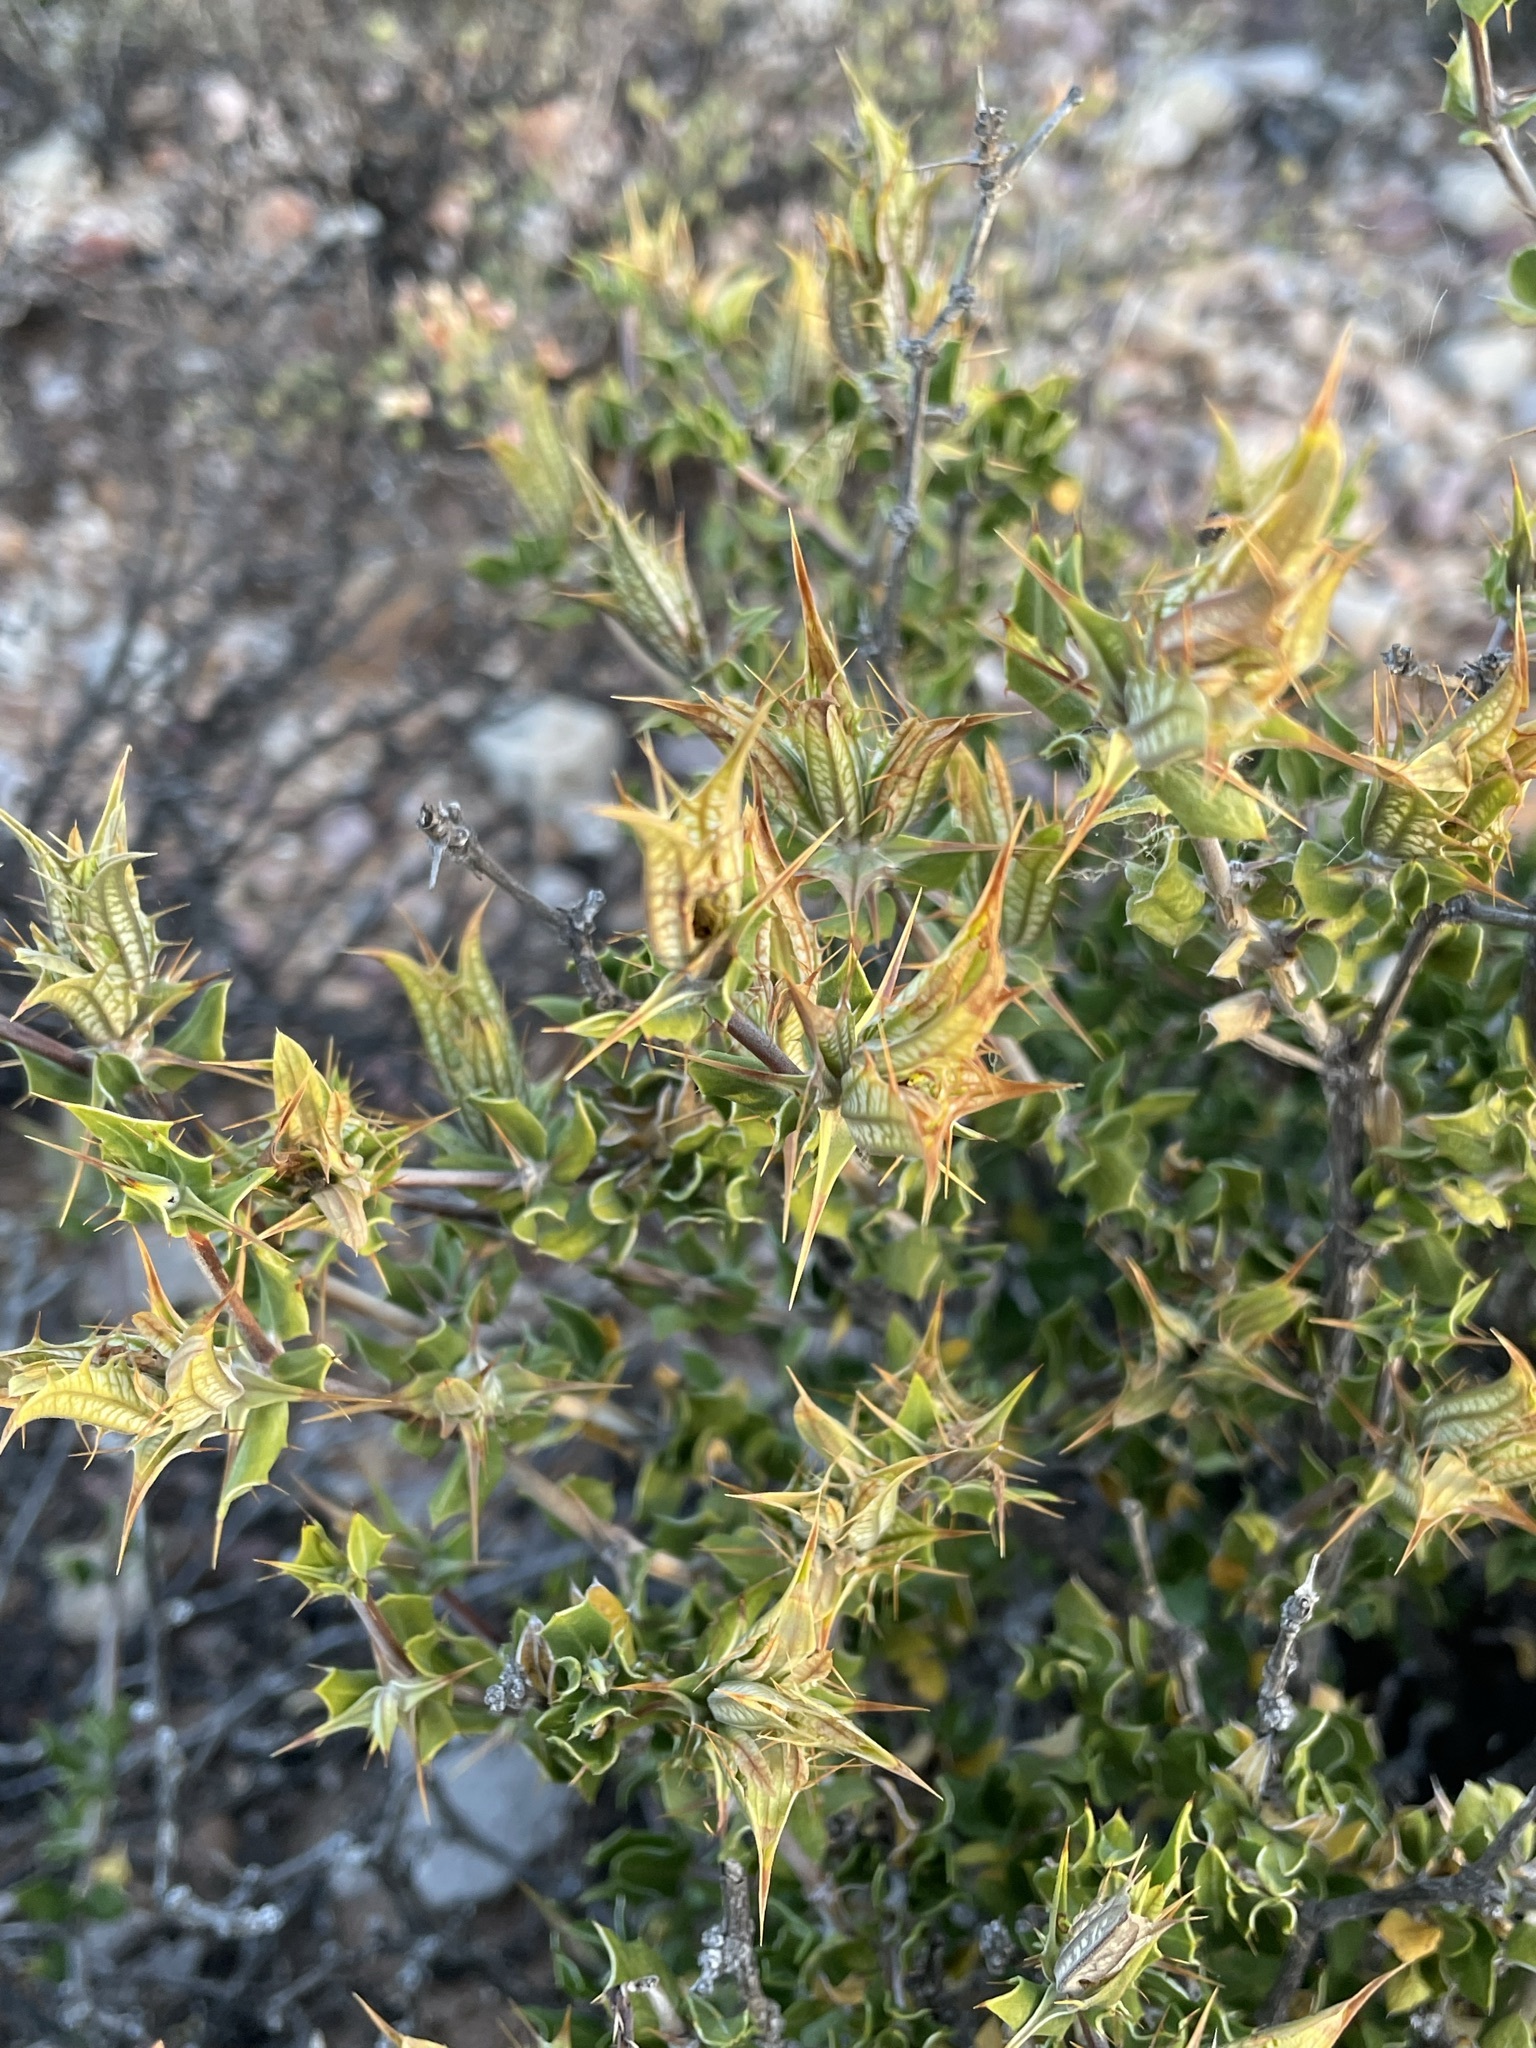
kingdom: Plantae
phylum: Tracheophyta
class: Magnoliopsida
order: Lamiales
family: Acanthaceae
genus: Blepharis
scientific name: Blepharis capensis
